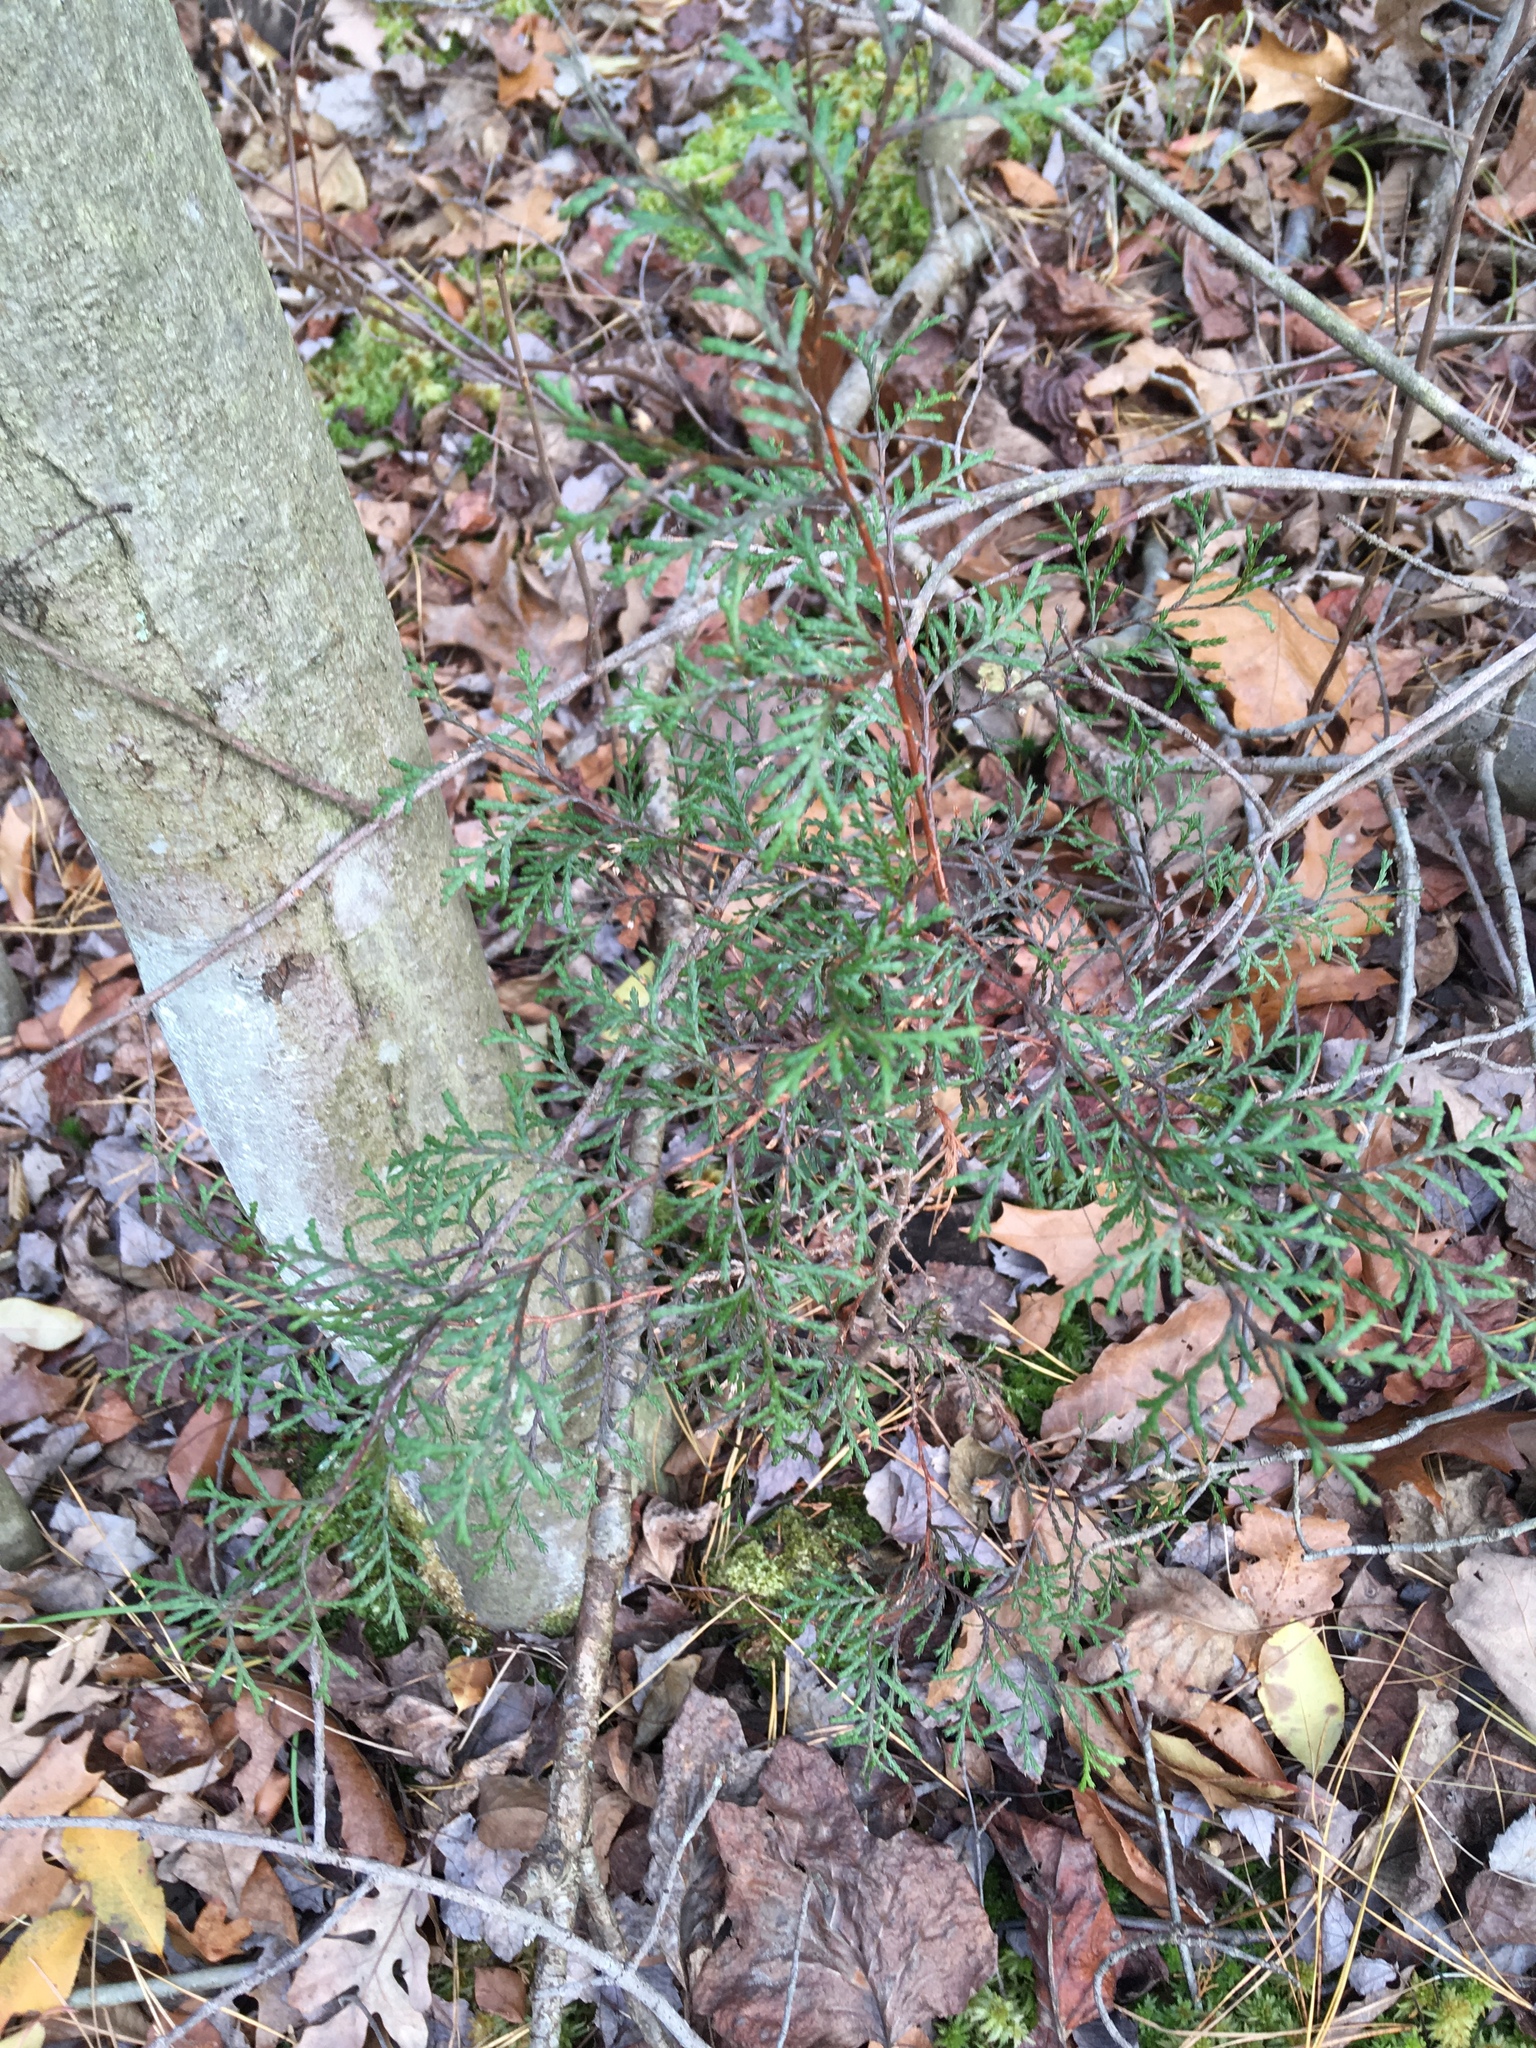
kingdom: Plantae
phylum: Tracheophyta
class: Pinopsida
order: Pinales
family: Cupressaceae
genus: Chamaecyparis
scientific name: Chamaecyparis thyoides
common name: Atlantic white cedar
